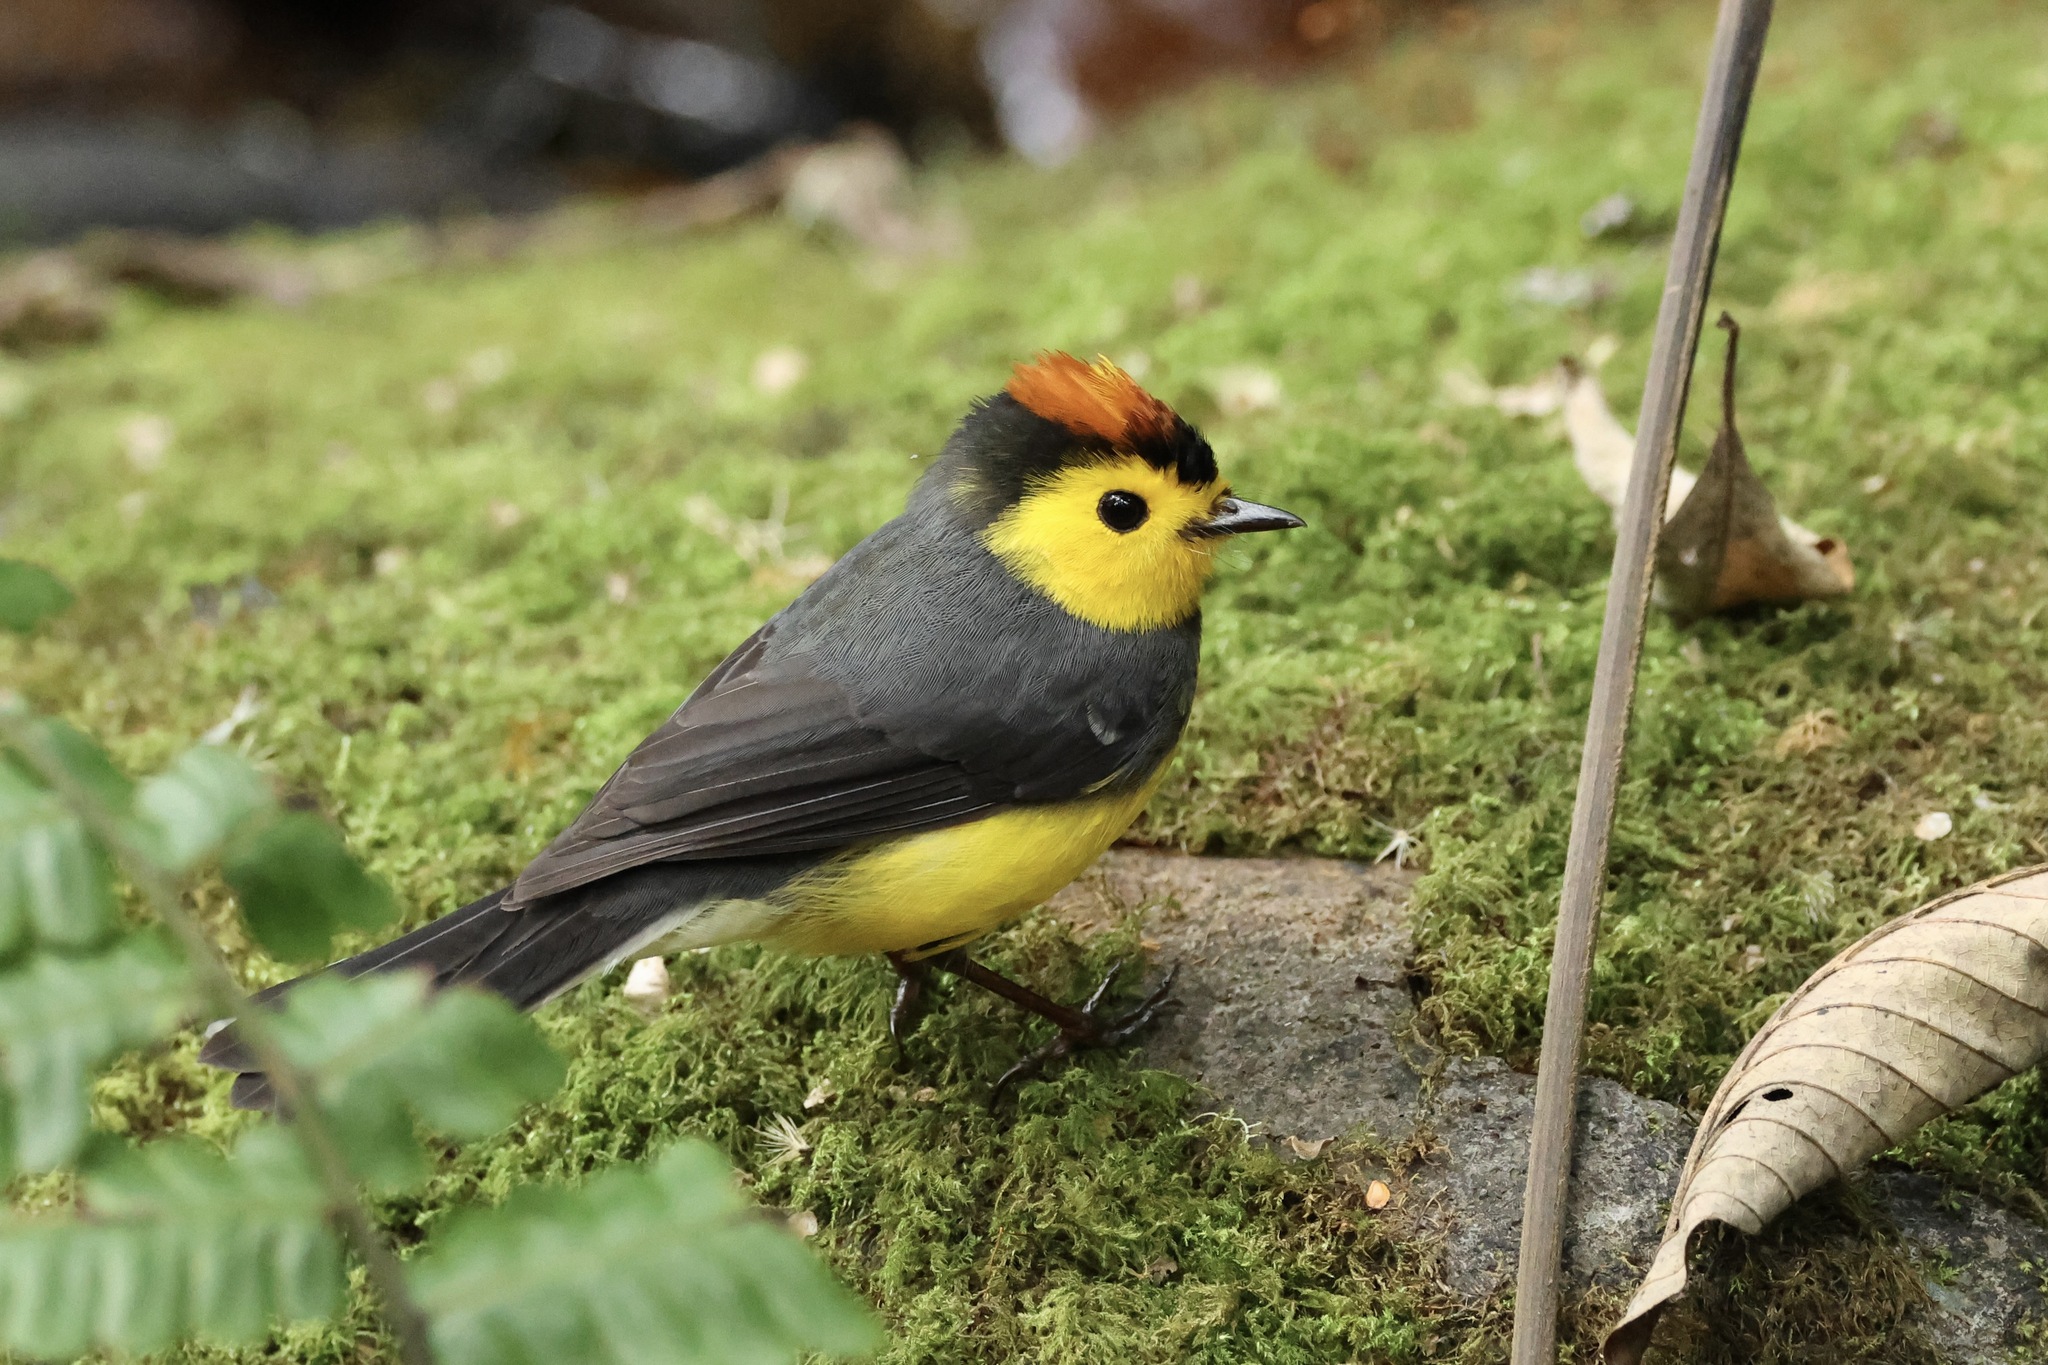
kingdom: Animalia
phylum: Chordata
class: Aves
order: Passeriformes
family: Parulidae
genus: Myioborus
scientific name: Myioborus torquatus
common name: Collared whitestart
